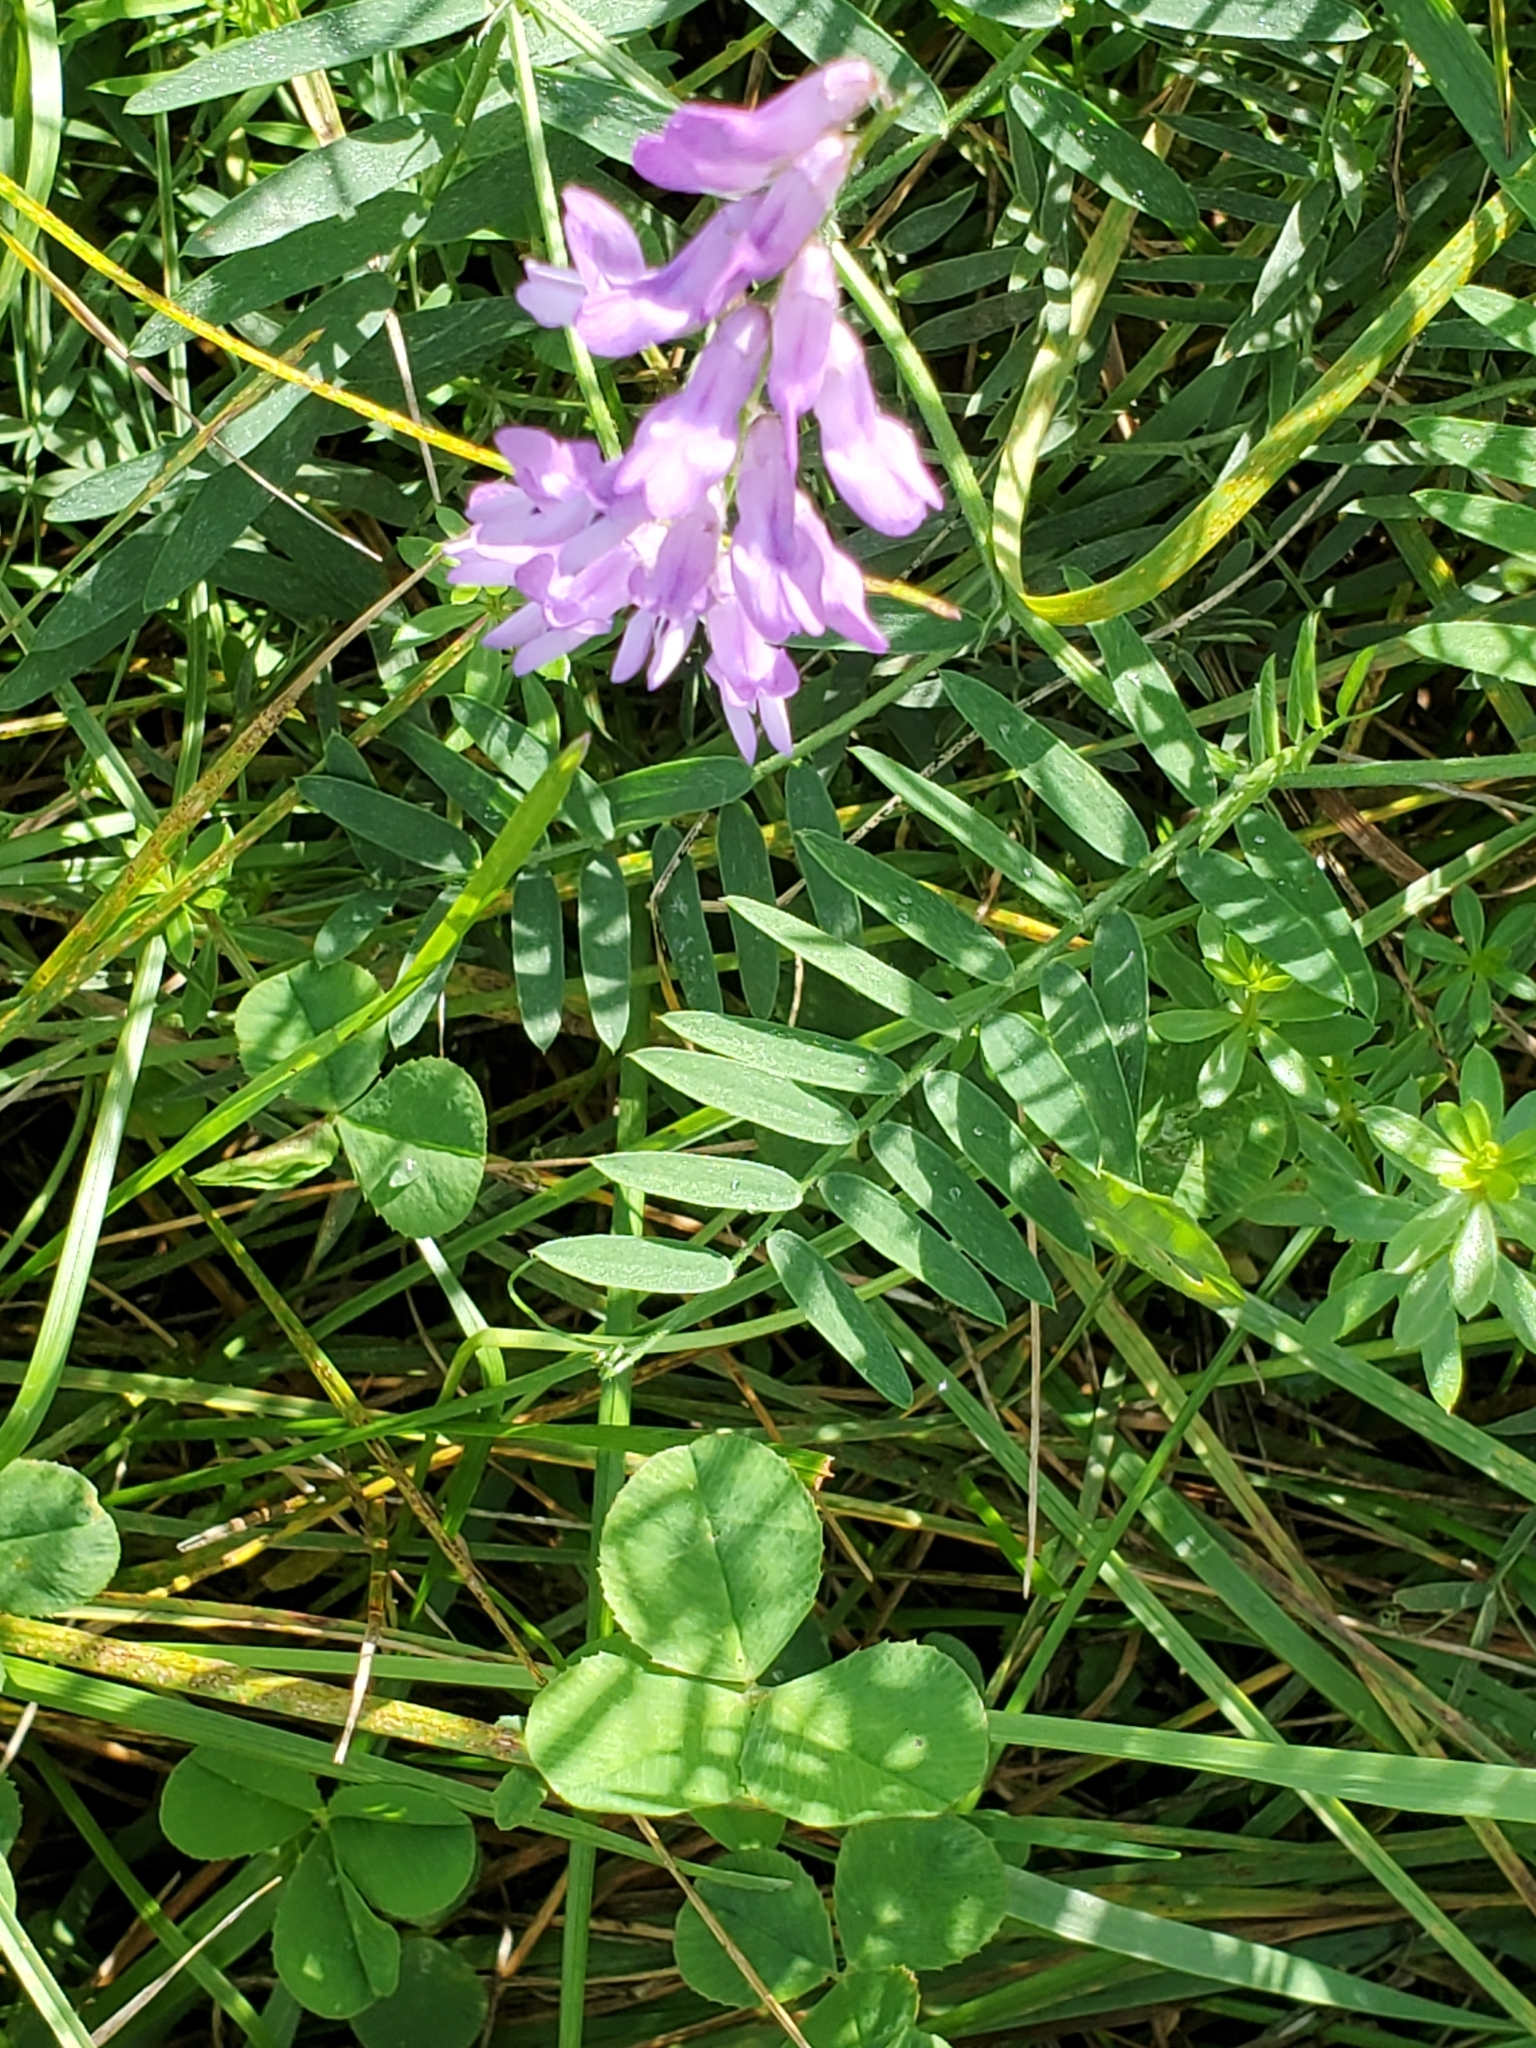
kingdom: Plantae
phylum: Tracheophyta
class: Magnoliopsida
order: Fabales
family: Fabaceae
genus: Vicia
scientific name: Vicia cracca
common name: Bird vetch
